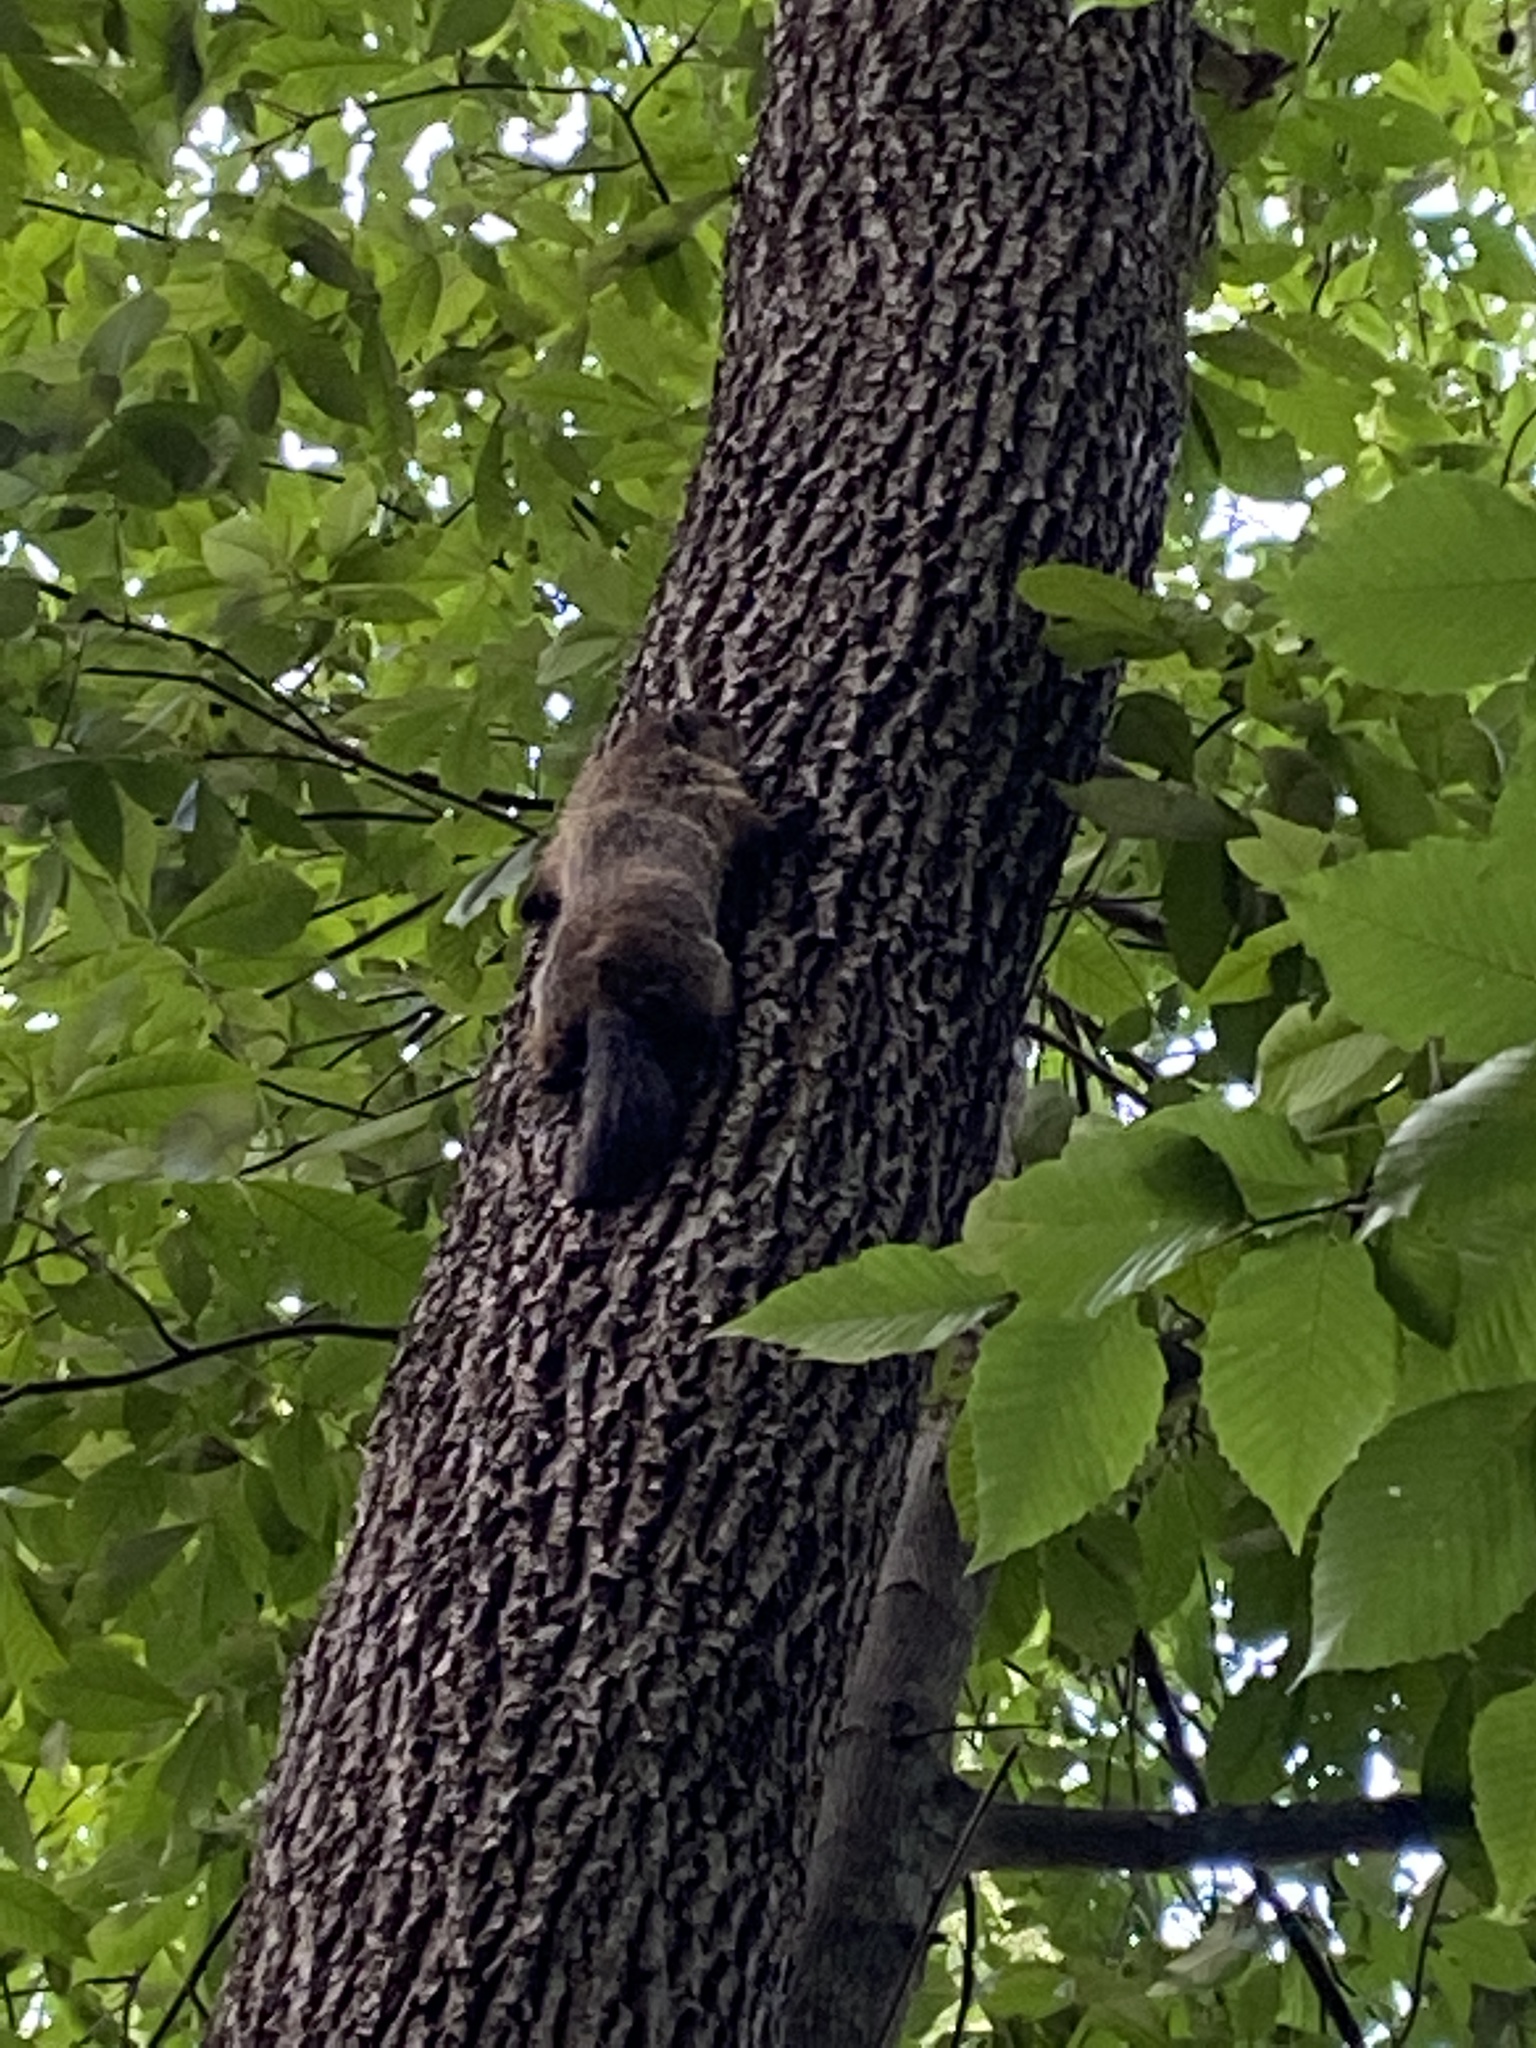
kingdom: Animalia
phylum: Chordata
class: Mammalia
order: Rodentia
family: Sciuridae
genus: Marmota
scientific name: Marmota monax
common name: Groundhog
